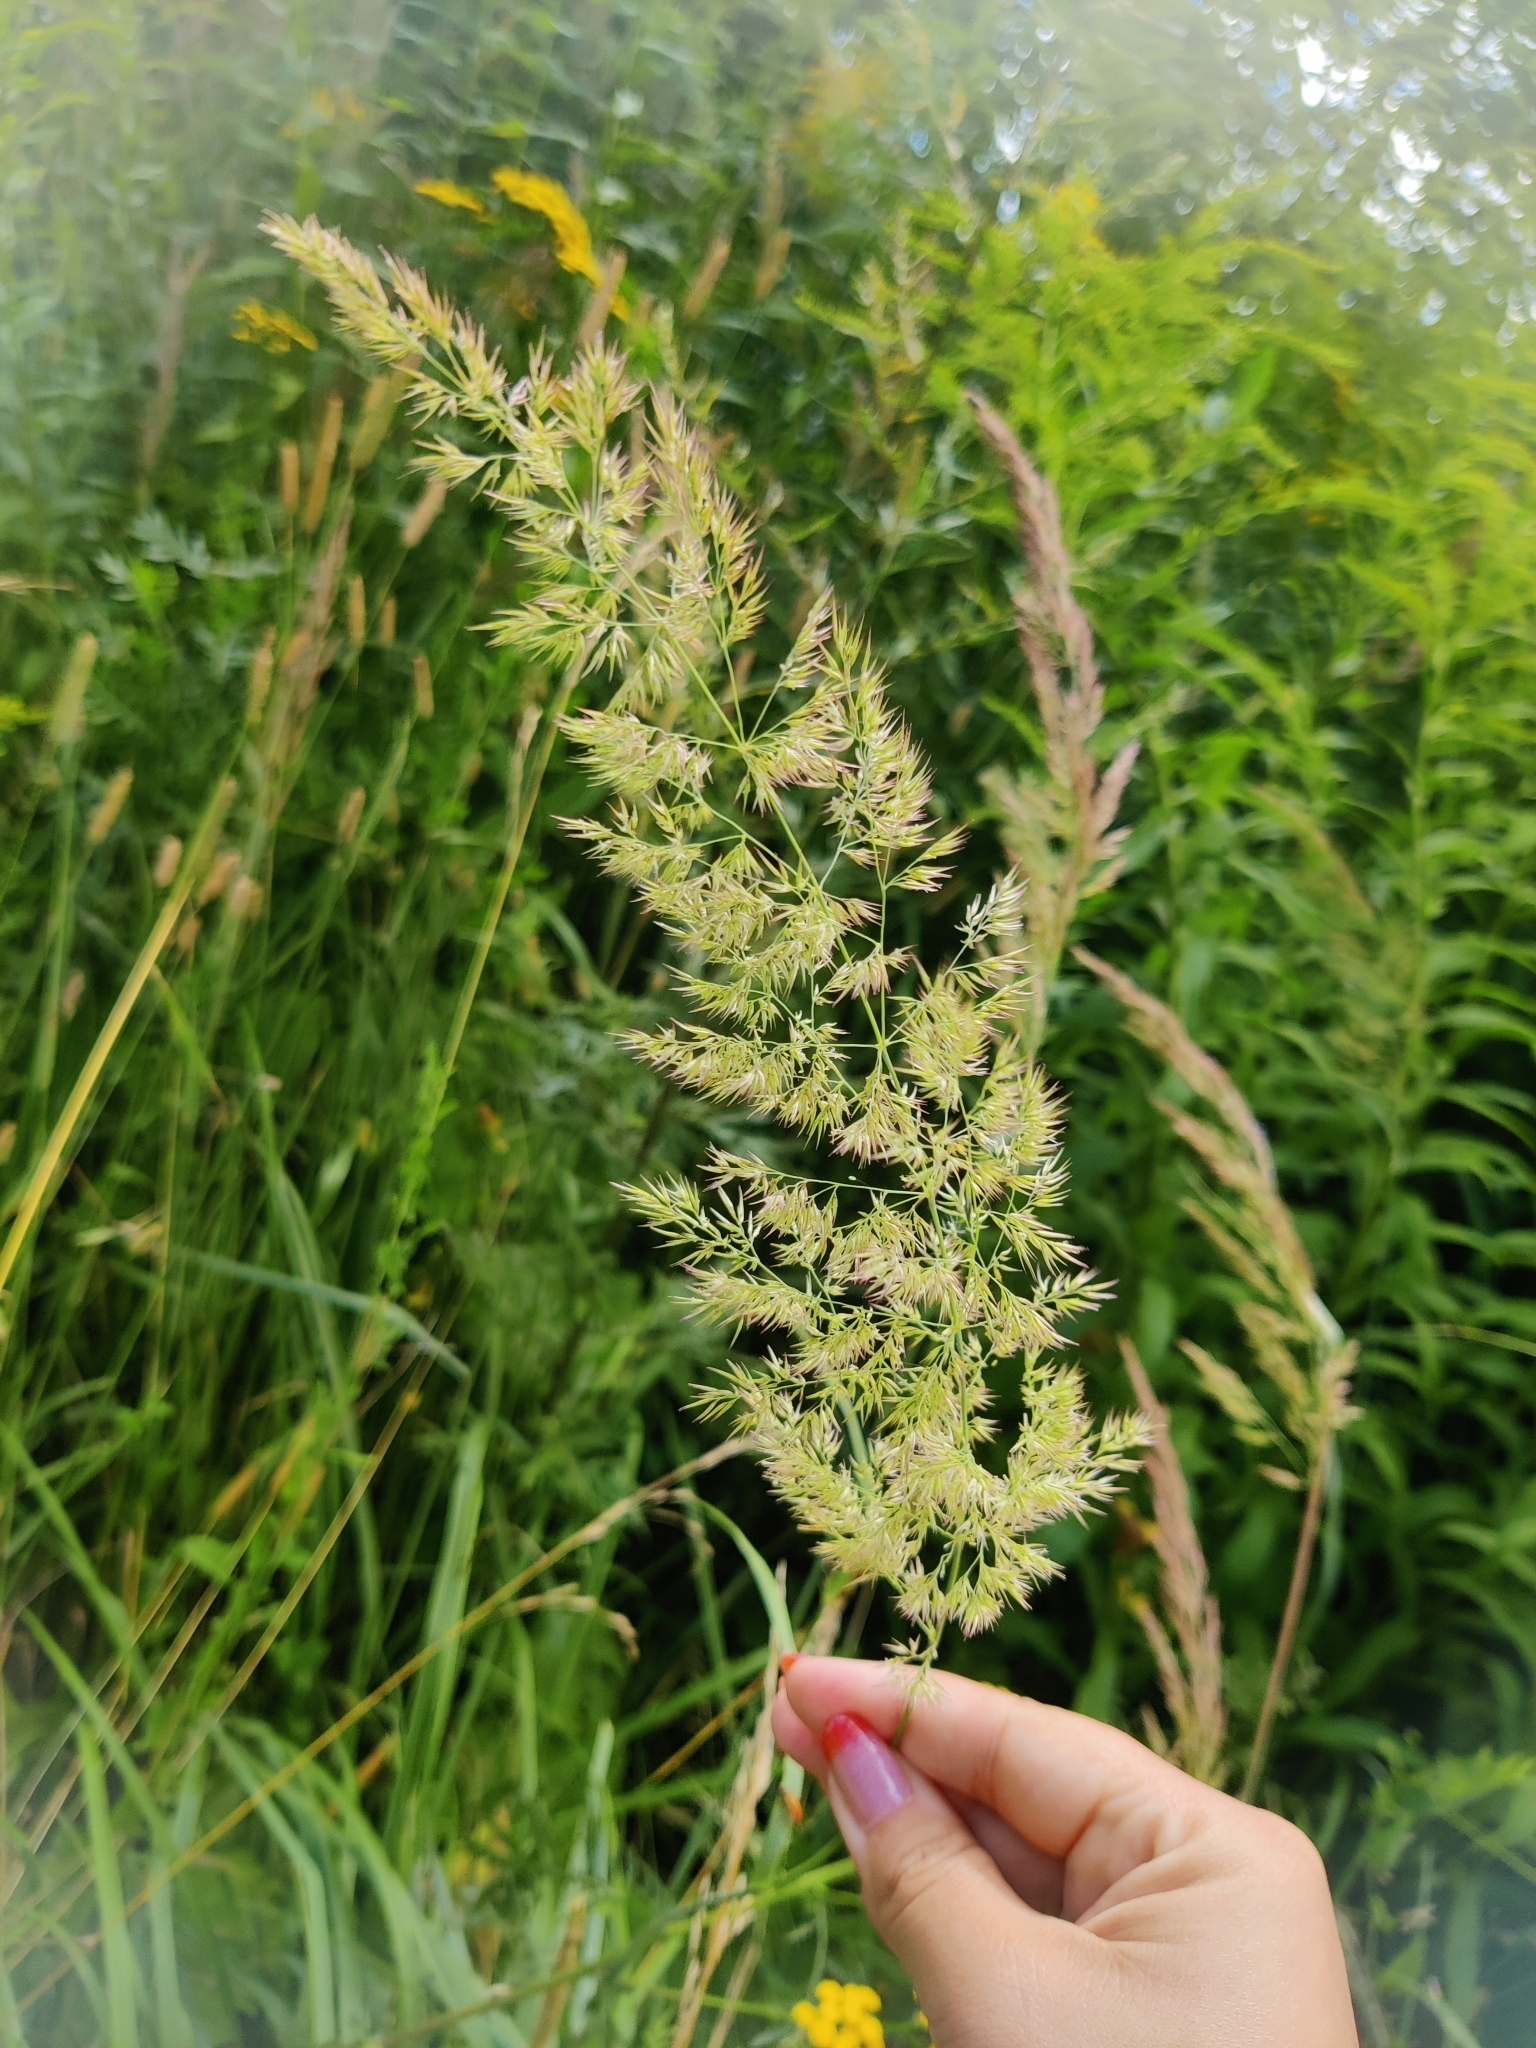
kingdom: Plantae
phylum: Tracheophyta
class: Liliopsida
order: Poales
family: Poaceae
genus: Calamagrostis
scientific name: Calamagrostis epigejos
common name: Wood small-reed
